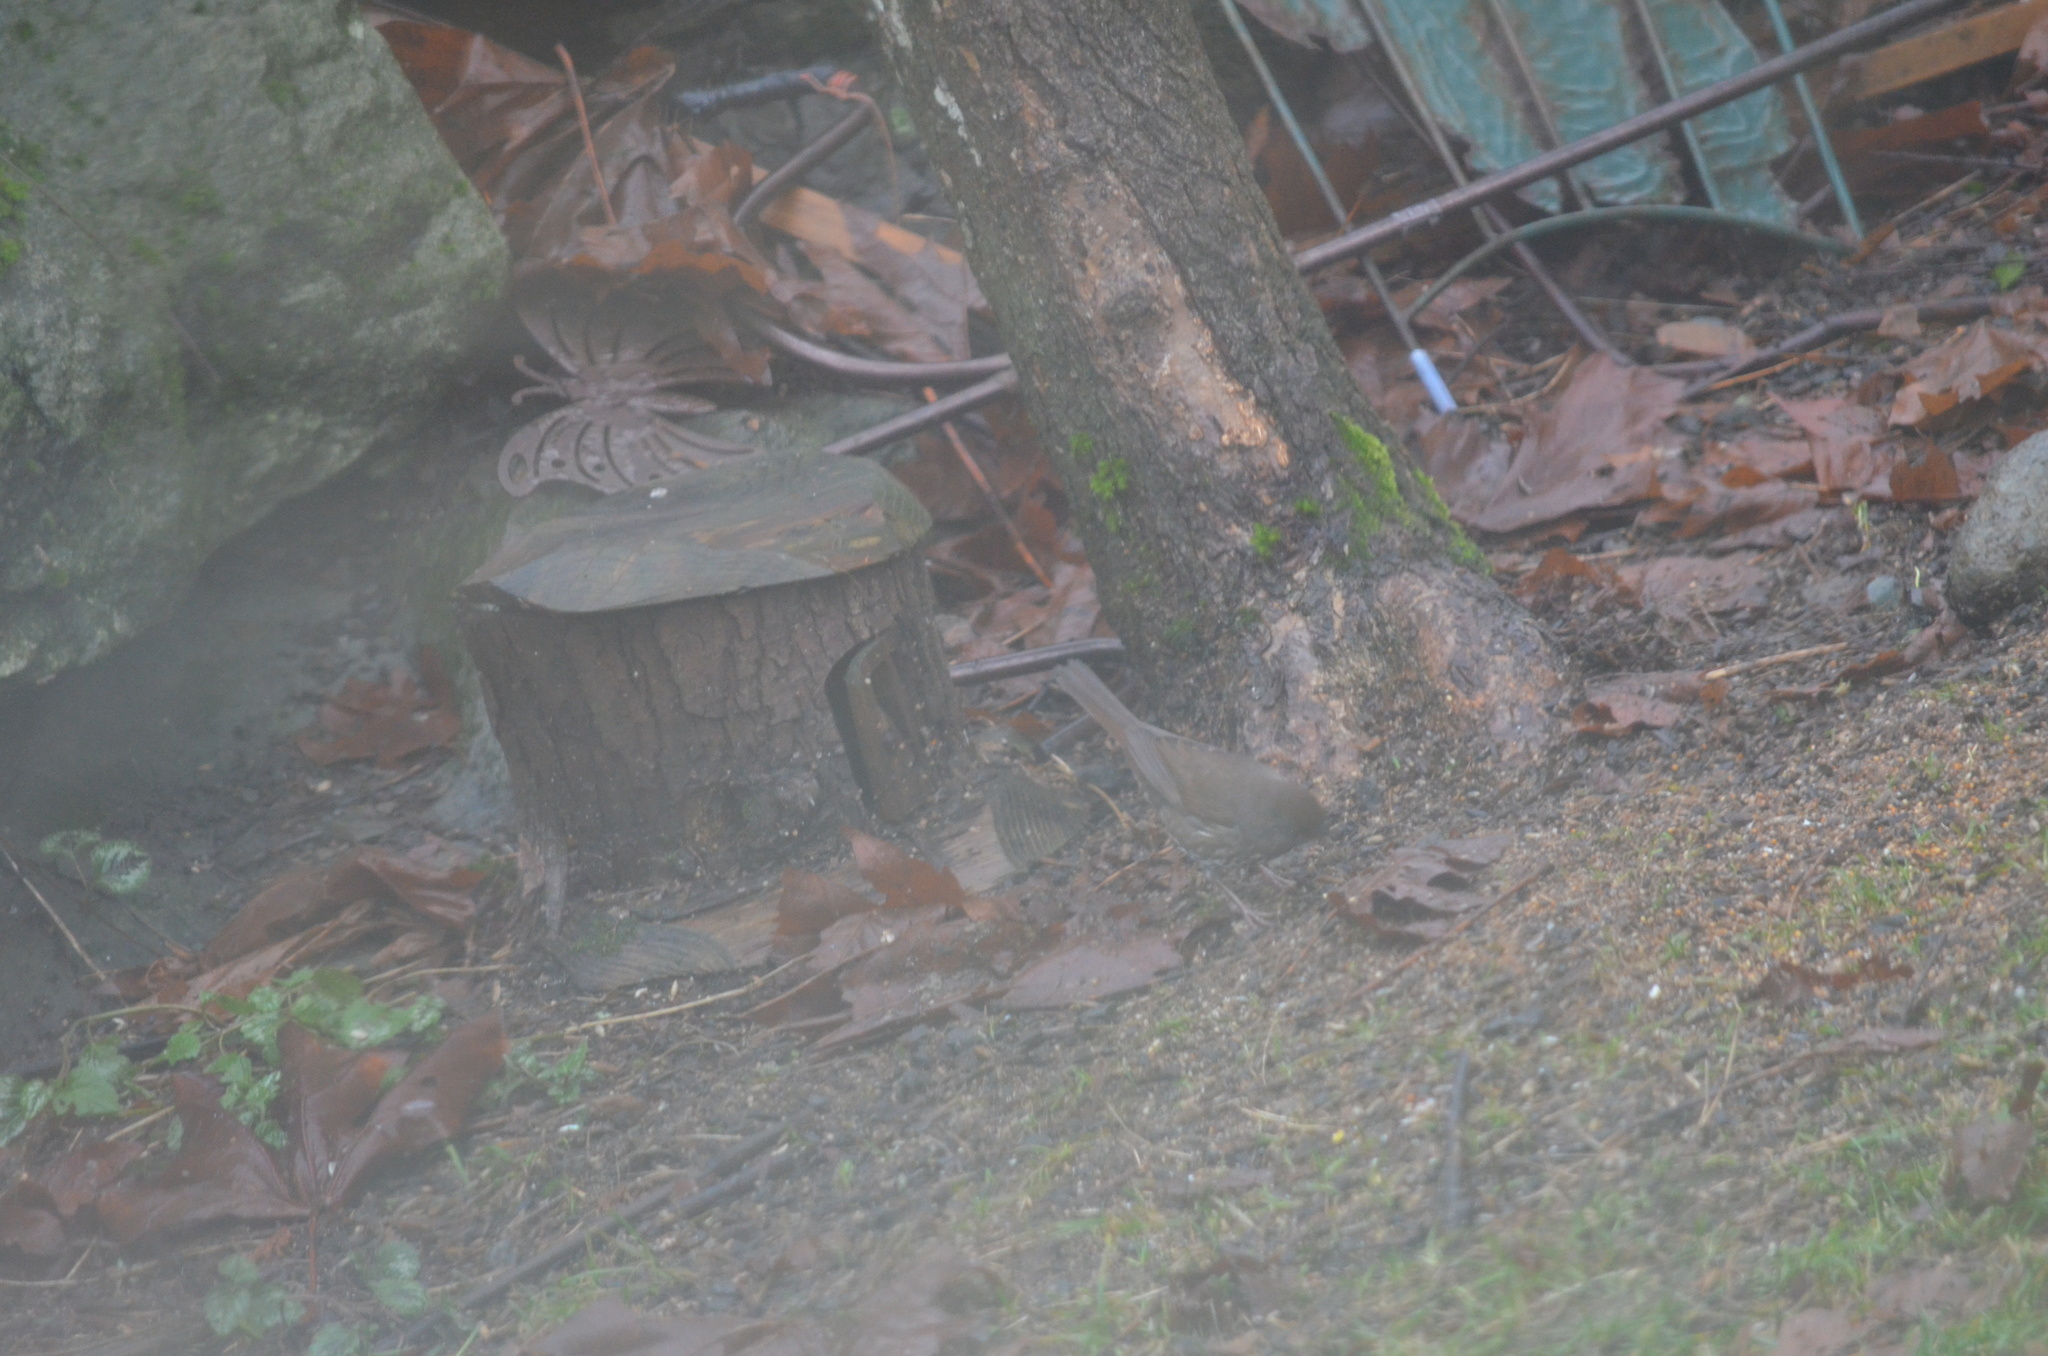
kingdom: Animalia
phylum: Chordata
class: Aves
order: Passeriformes
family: Passerellidae
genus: Passerella
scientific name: Passerella iliaca
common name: Fox sparrow
